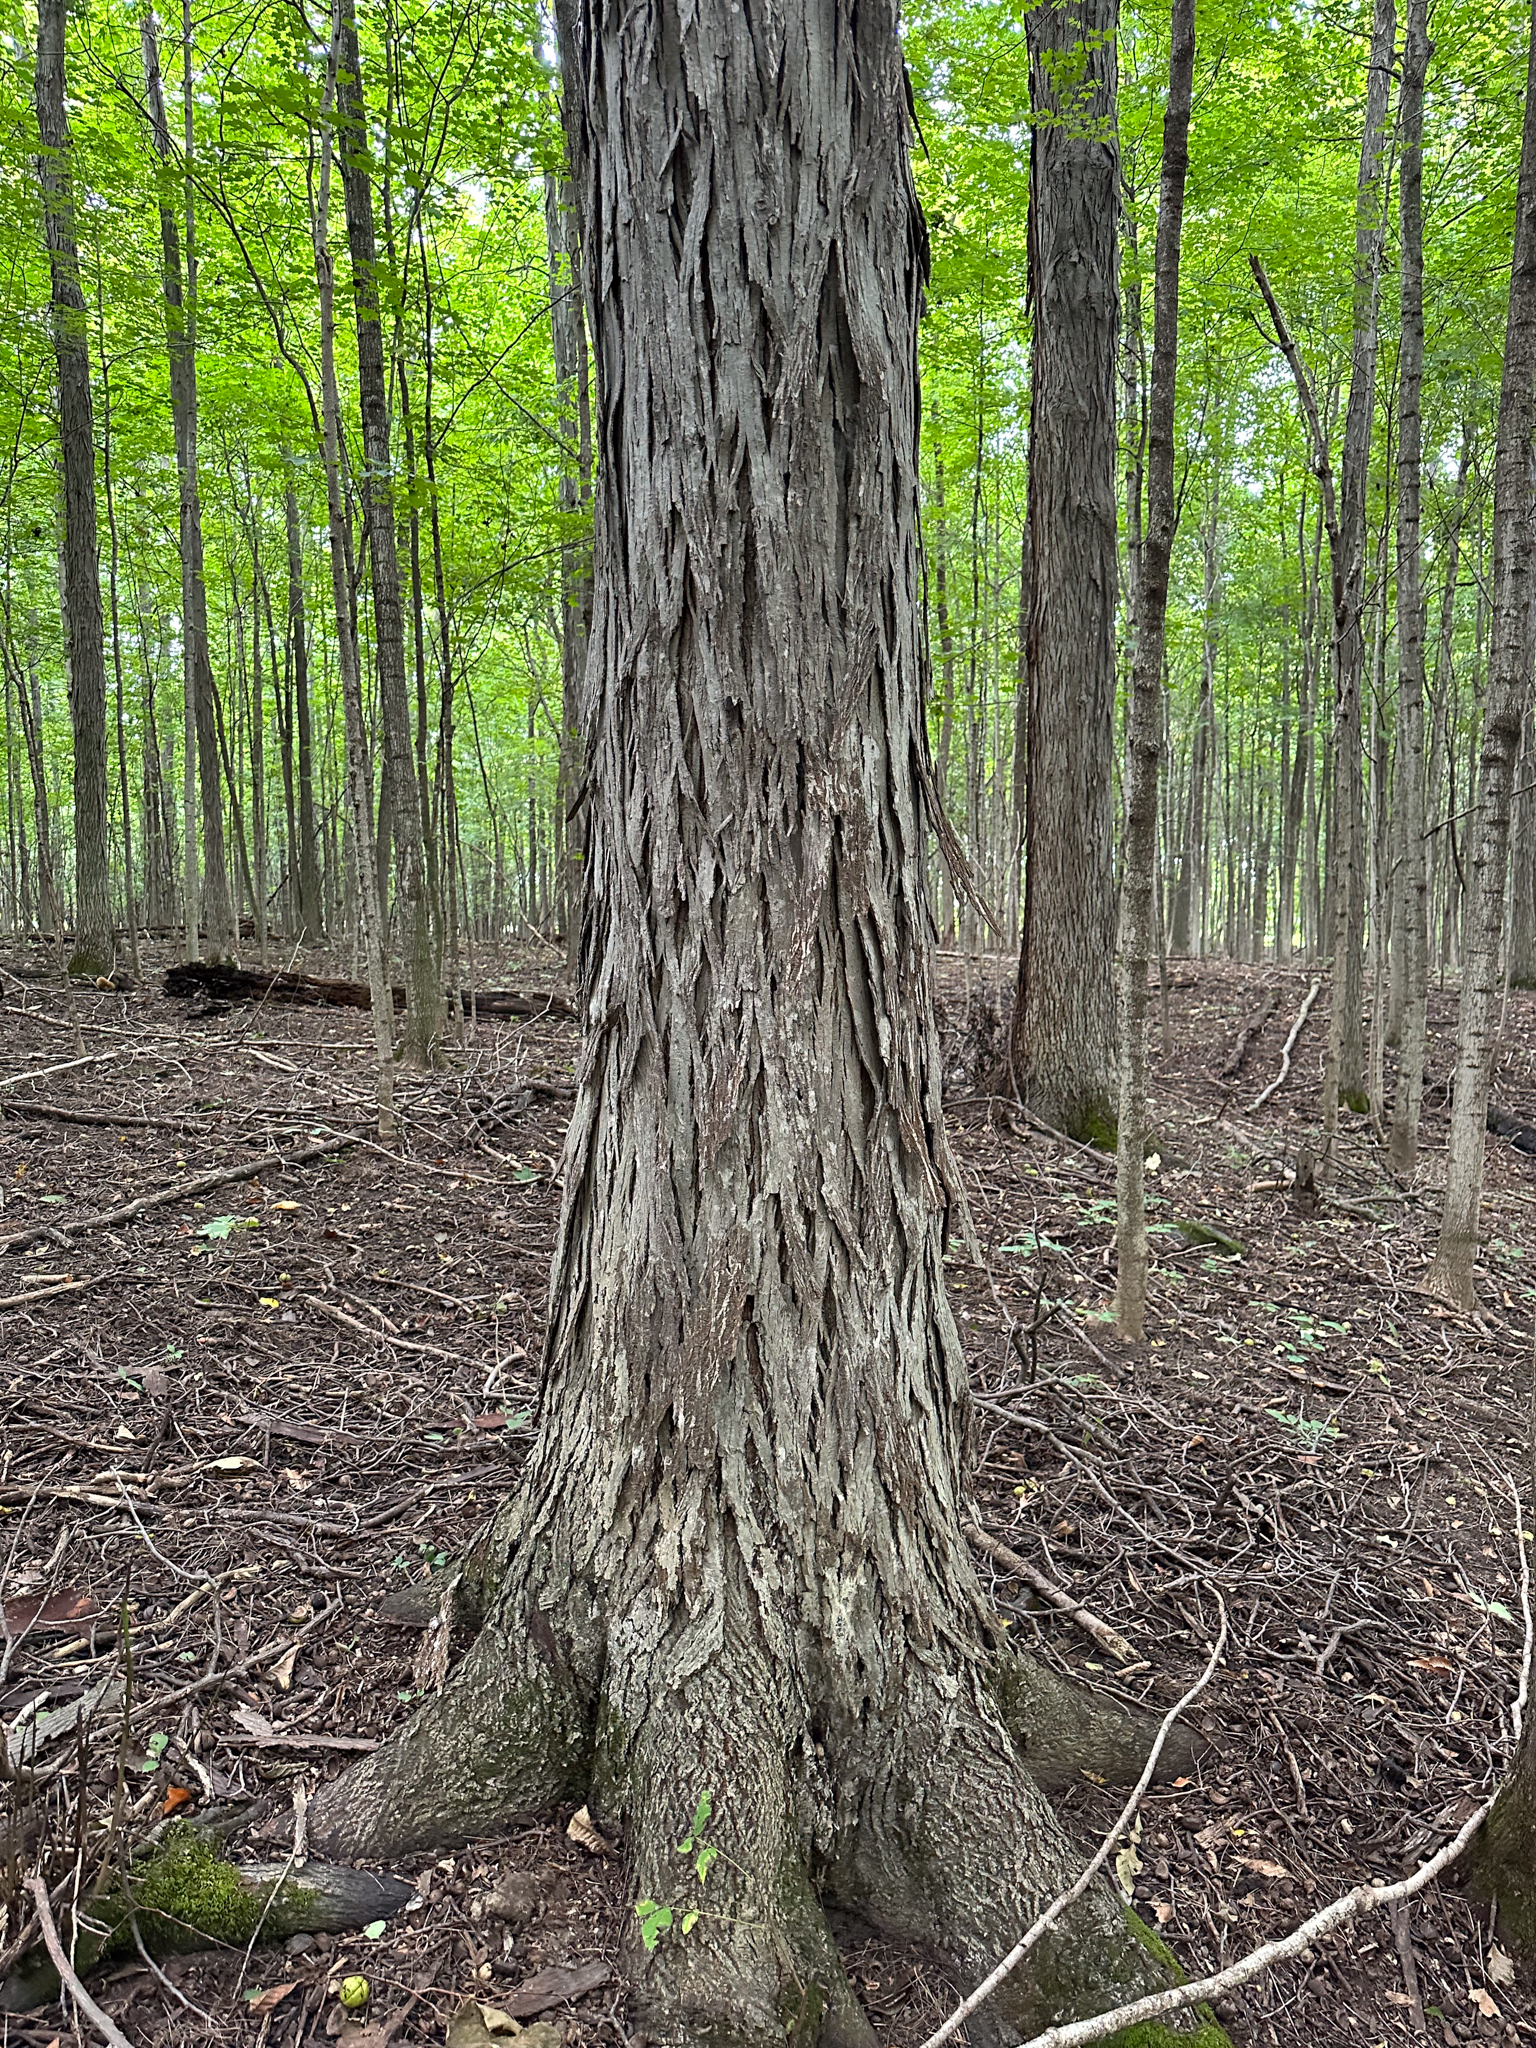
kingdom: Plantae
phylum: Tracheophyta
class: Magnoliopsida
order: Fagales
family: Juglandaceae
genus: Carya
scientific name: Carya ovata
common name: Shagbark hickory
